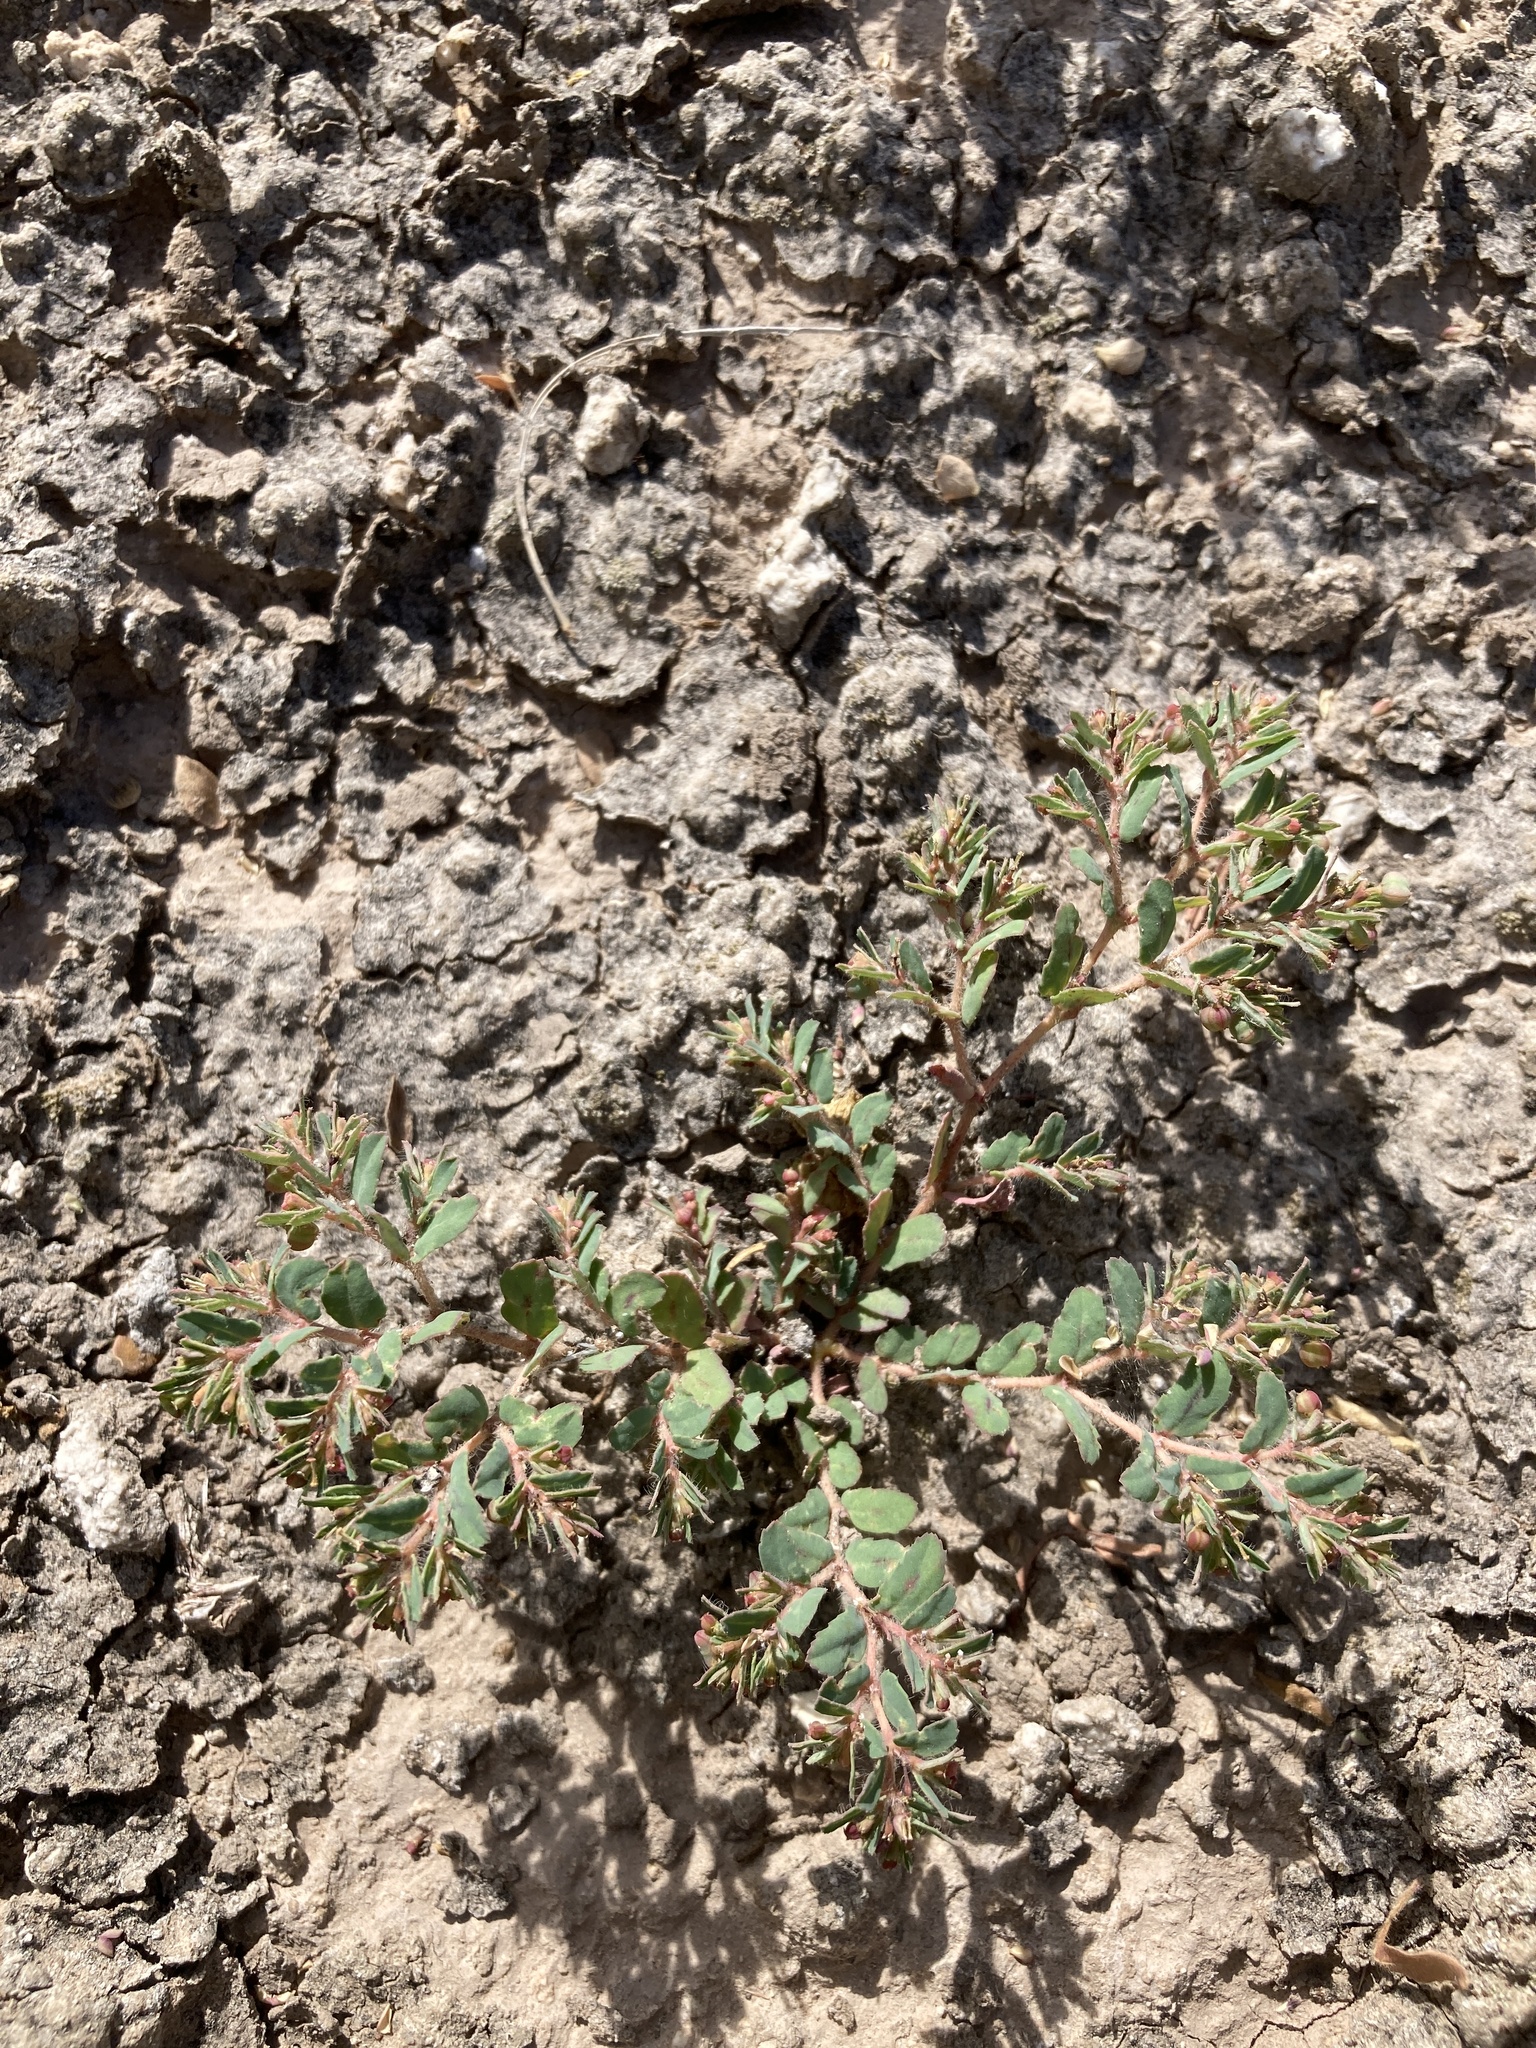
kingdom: Plantae
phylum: Tracheophyta
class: Magnoliopsida
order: Malpighiales
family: Euphorbiaceae
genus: Euphorbia
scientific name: Euphorbia serrula
